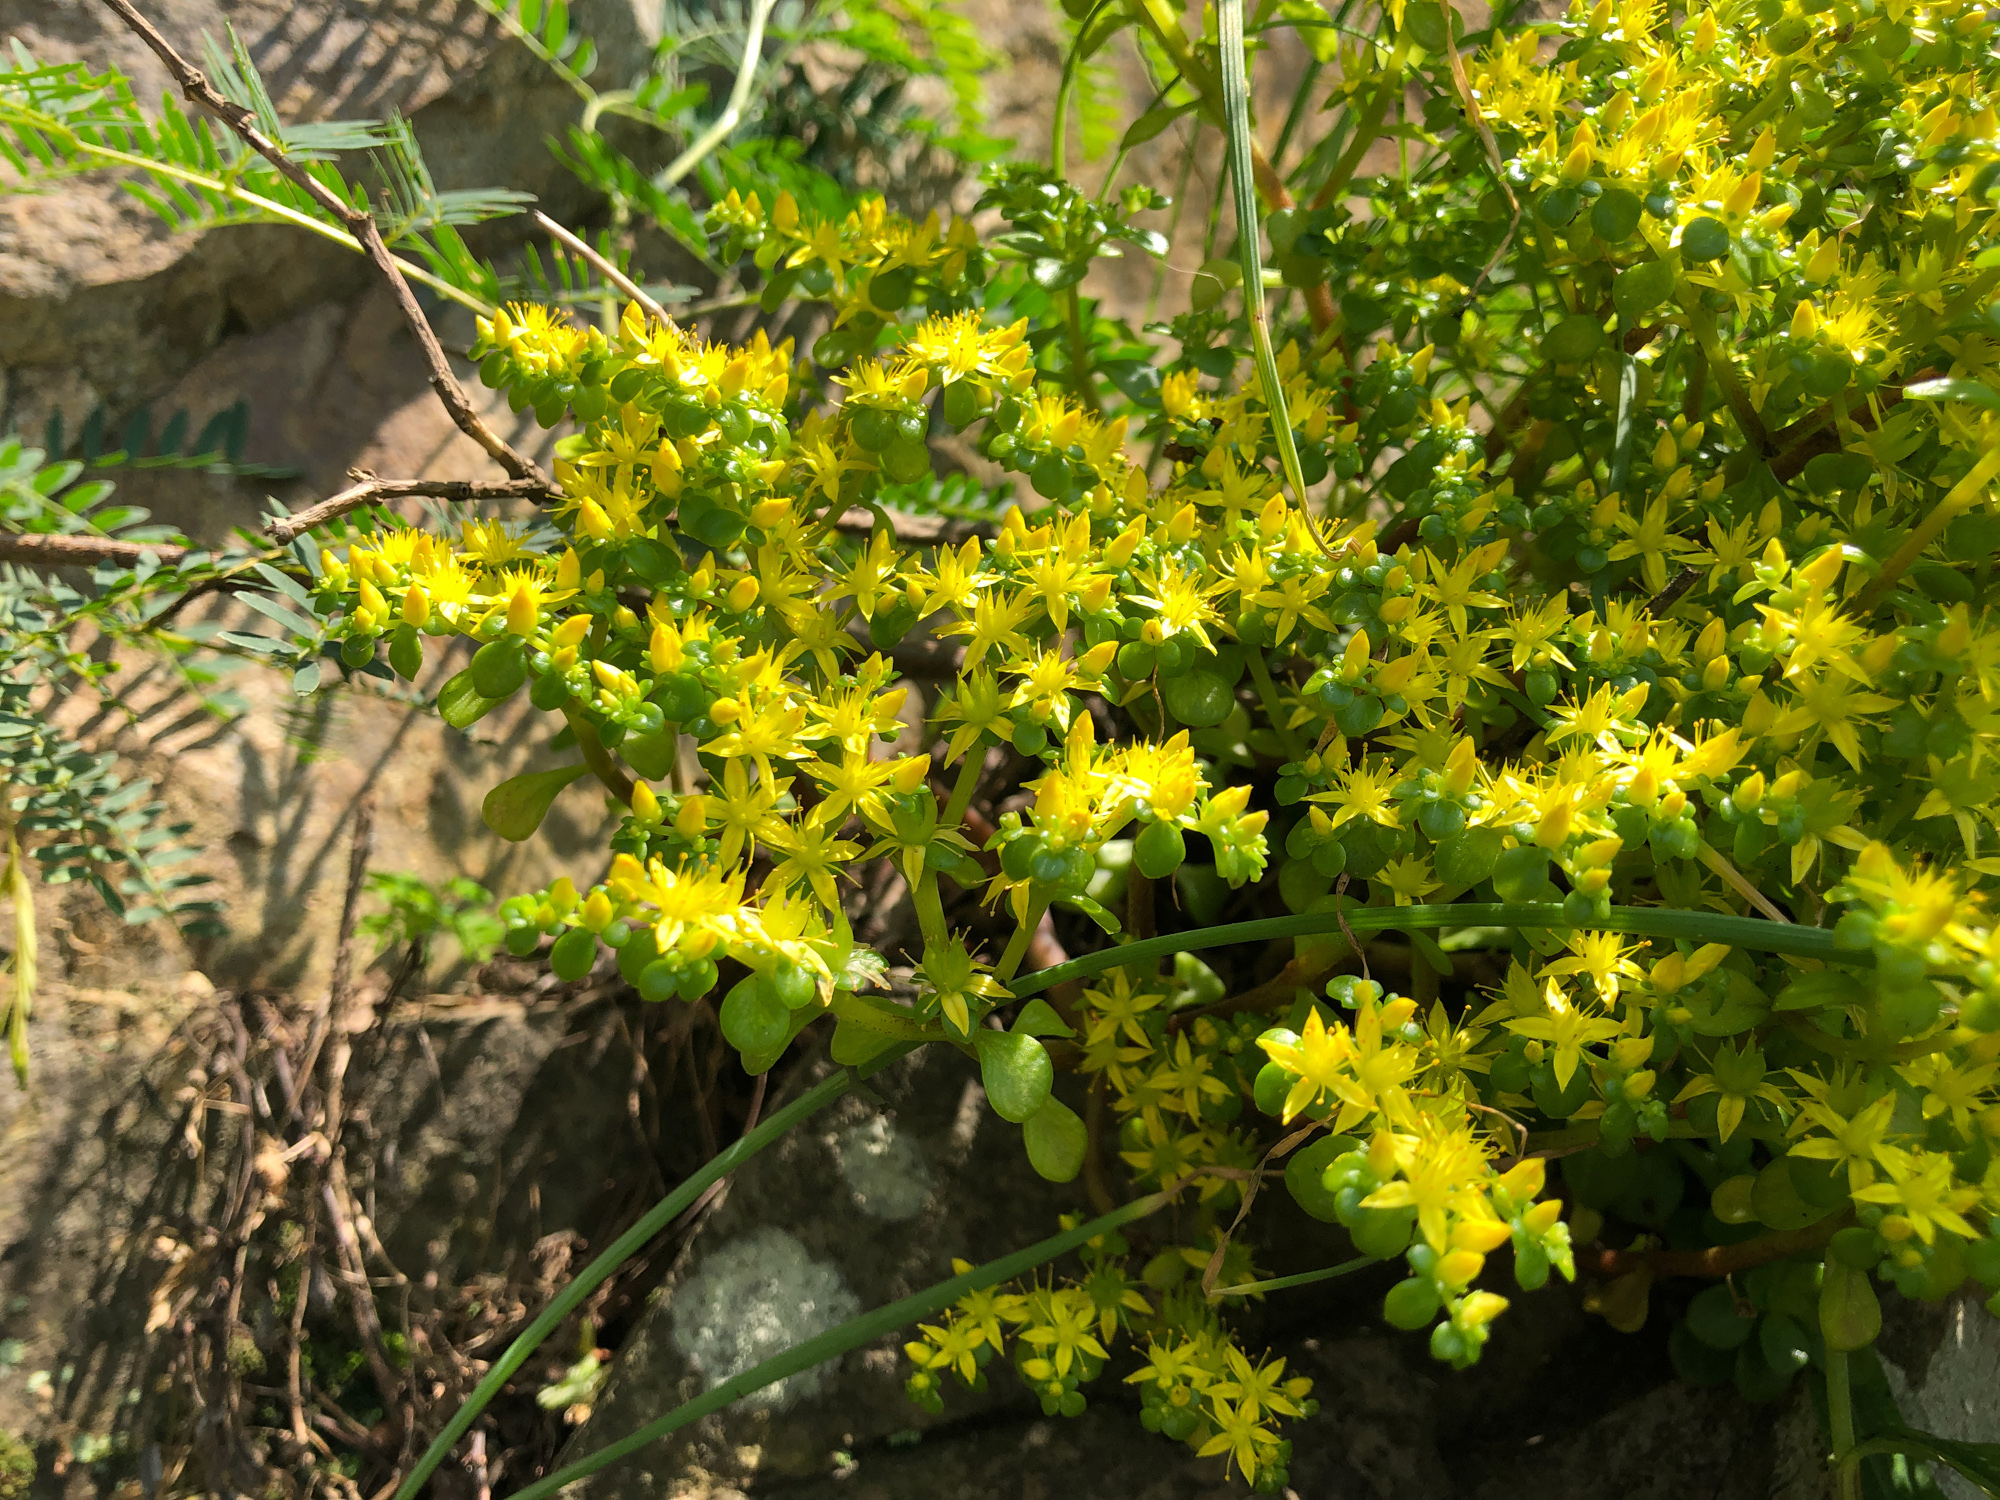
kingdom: Plantae
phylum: Tracheophyta
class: Magnoliopsida
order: Saxifragales
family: Crassulaceae
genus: Sedum
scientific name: Sedum formosanum
